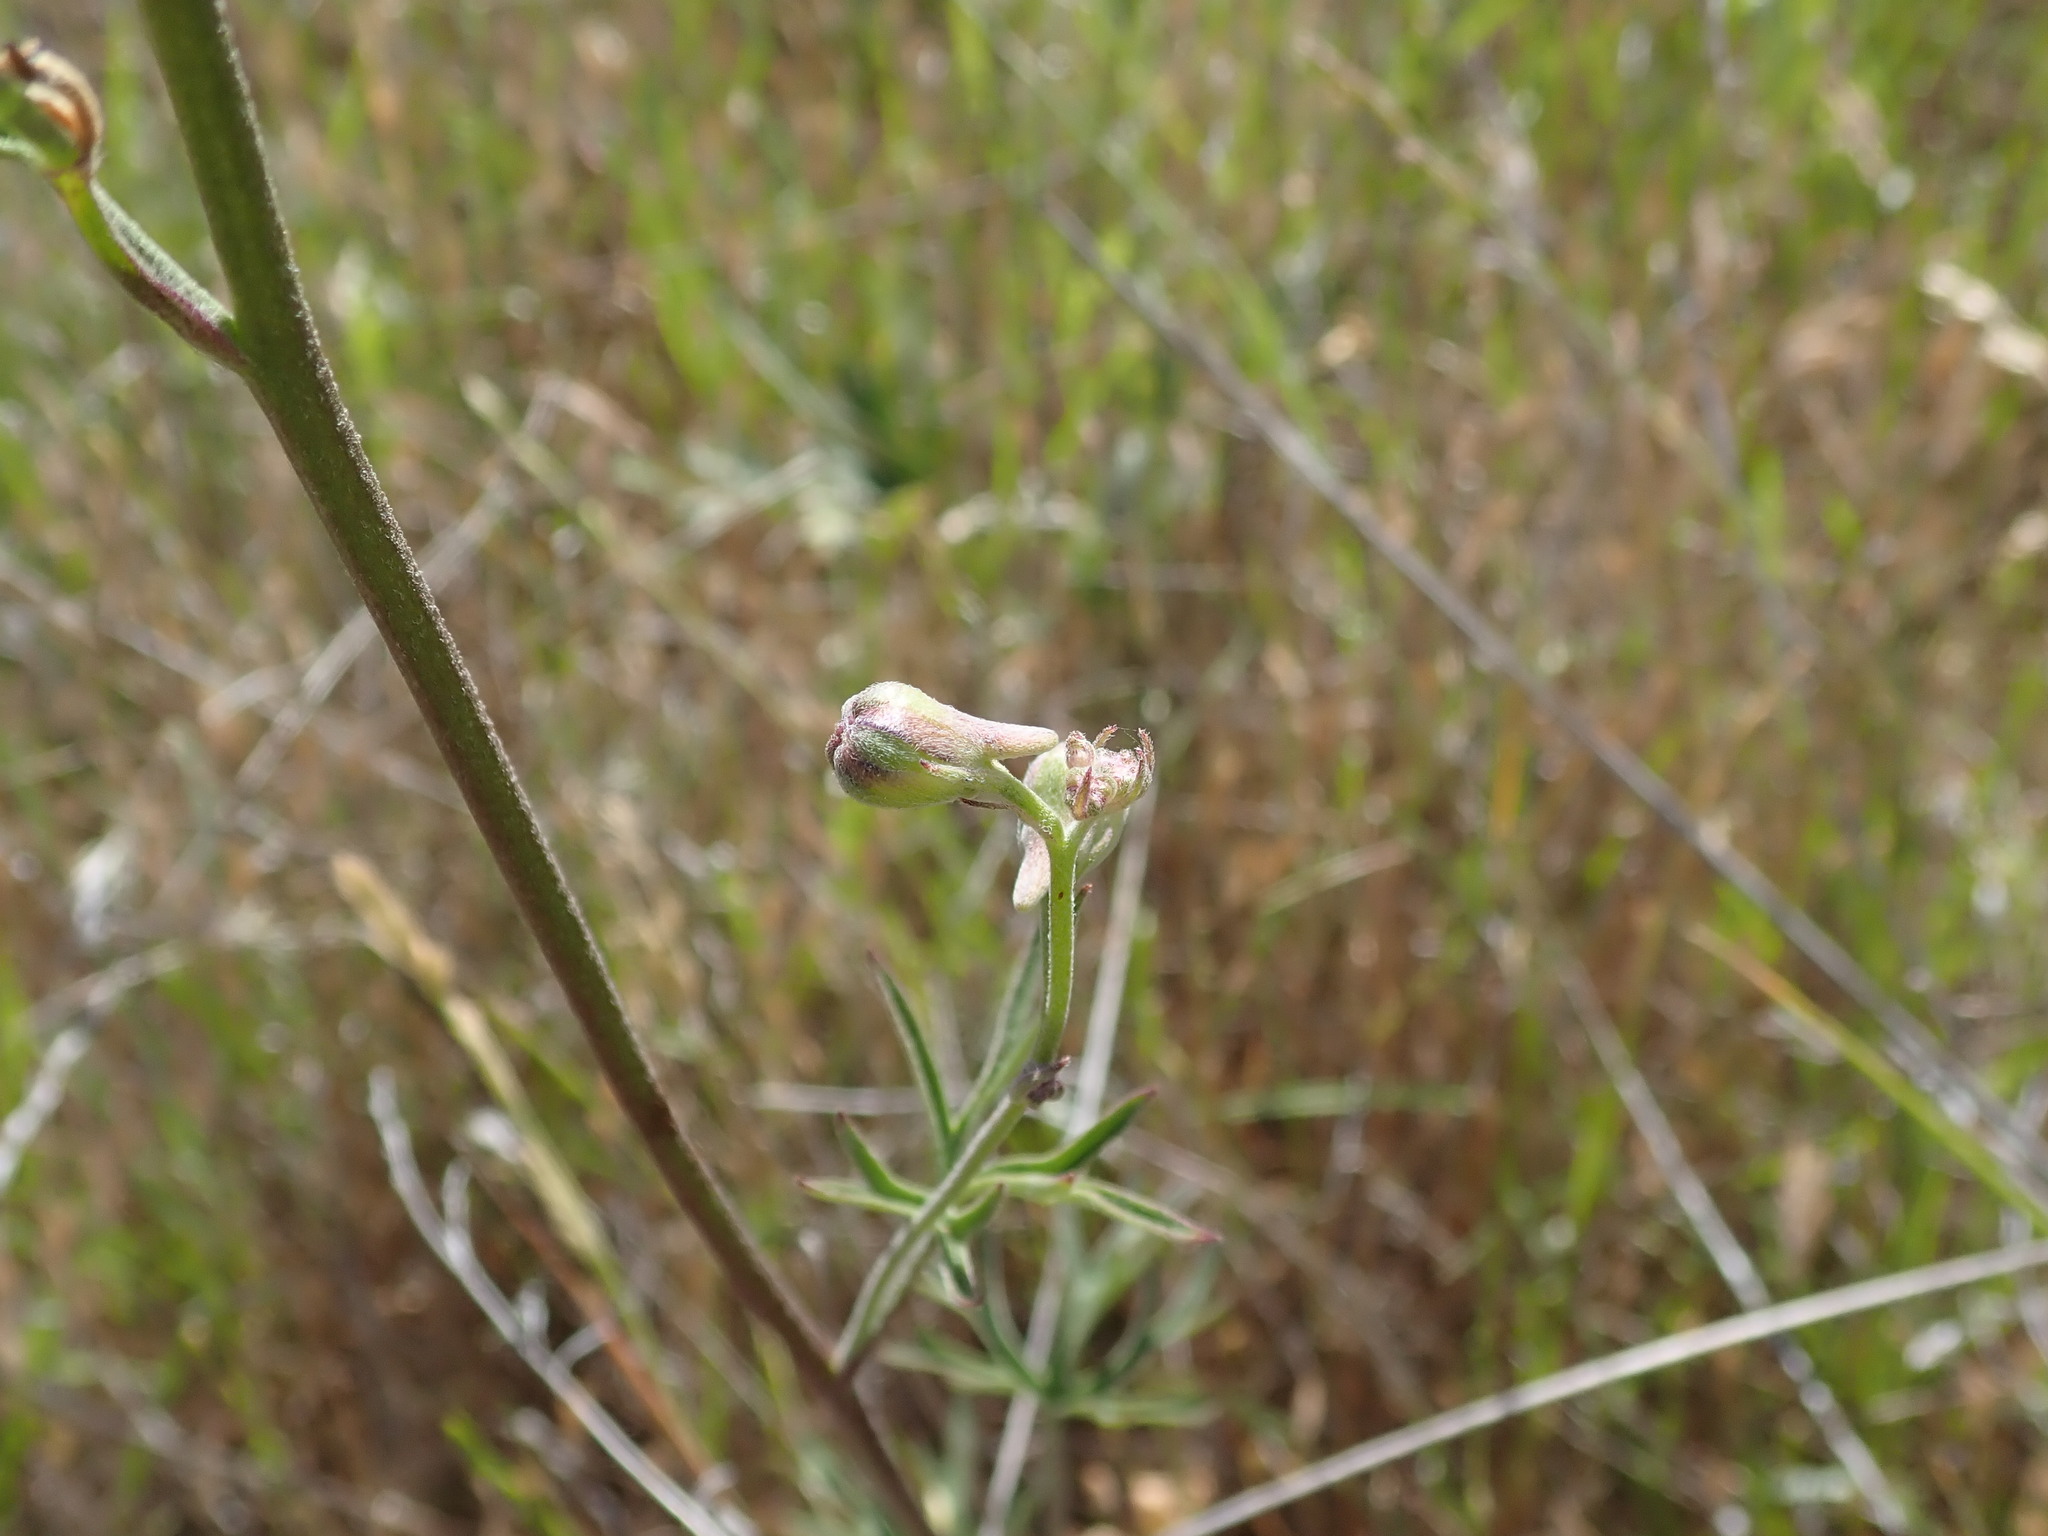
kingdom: Plantae
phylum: Tracheophyta
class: Magnoliopsida
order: Ranunculales
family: Ranunculaceae
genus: Delphinium
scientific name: Delphinium hesperium
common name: Western larkspur
